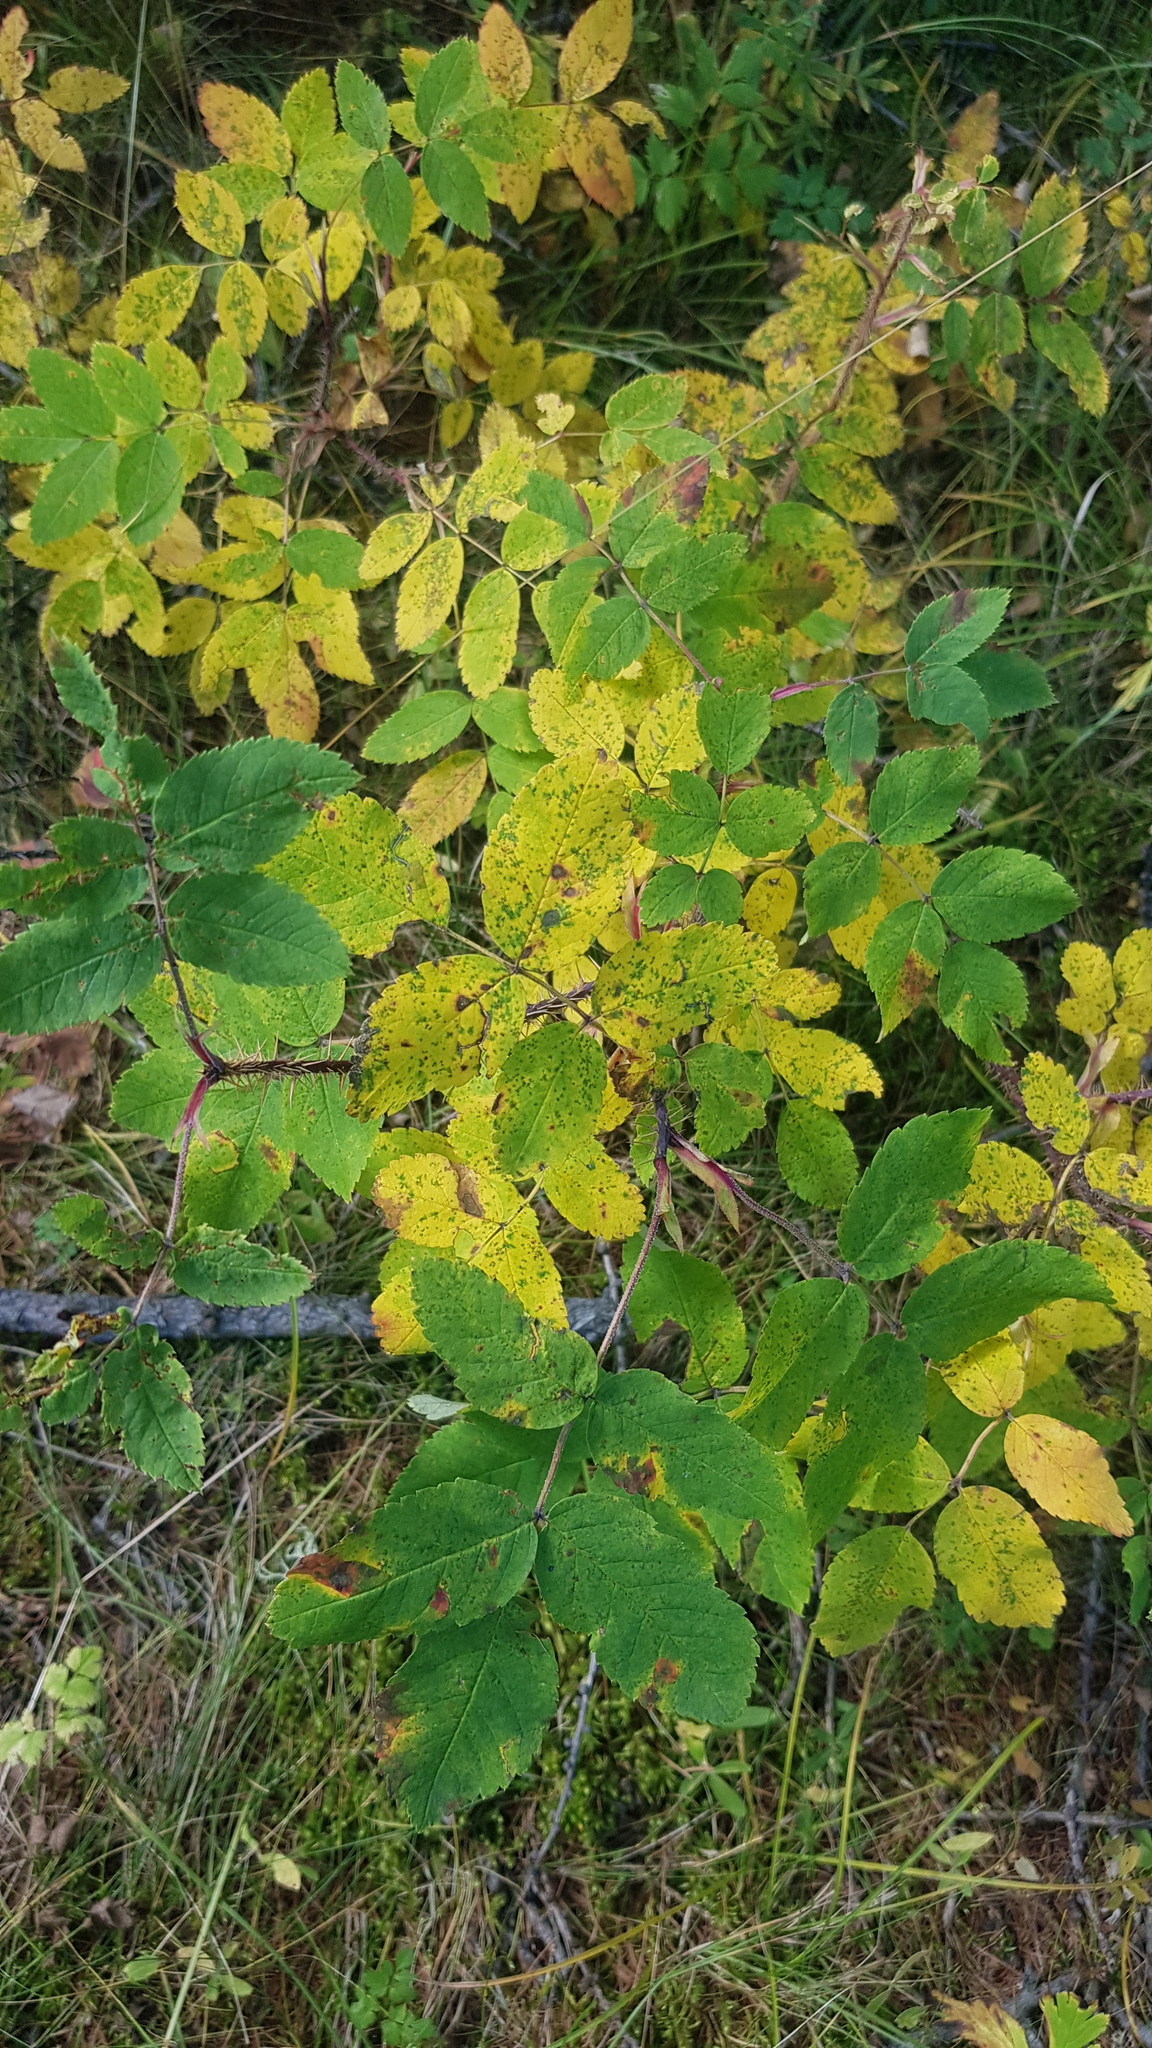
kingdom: Plantae
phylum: Tracheophyta
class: Magnoliopsida
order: Rosales
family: Rosaceae
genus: Rosa
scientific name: Rosa acicularis
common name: Prickly rose
